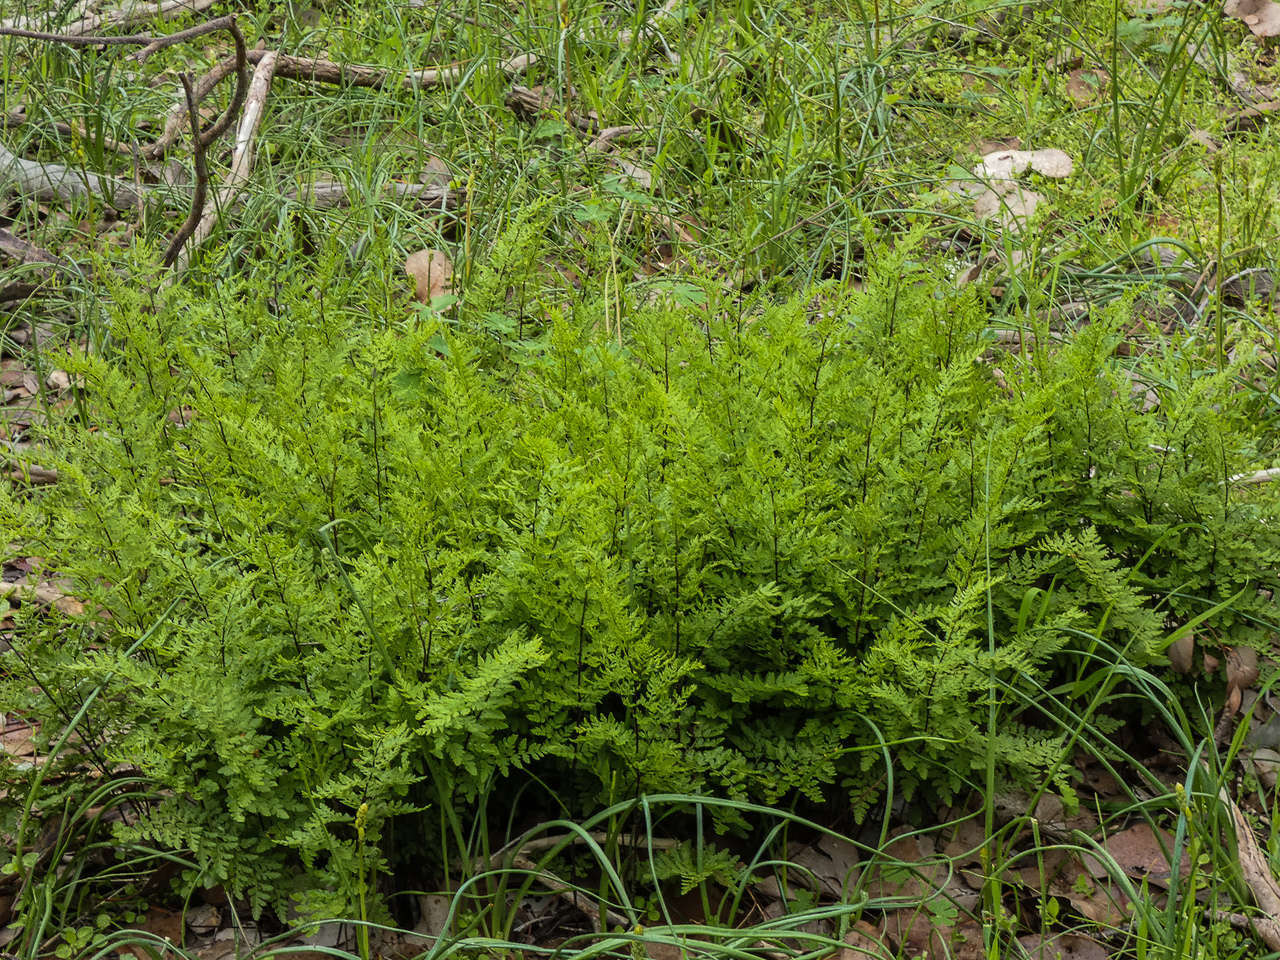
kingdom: Plantae
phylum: Tracheophyta
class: Polypodiopsida
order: Polypodiales
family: Pteridaceae
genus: Cheilanthes
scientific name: Cheilanthes austrotenuifolia
